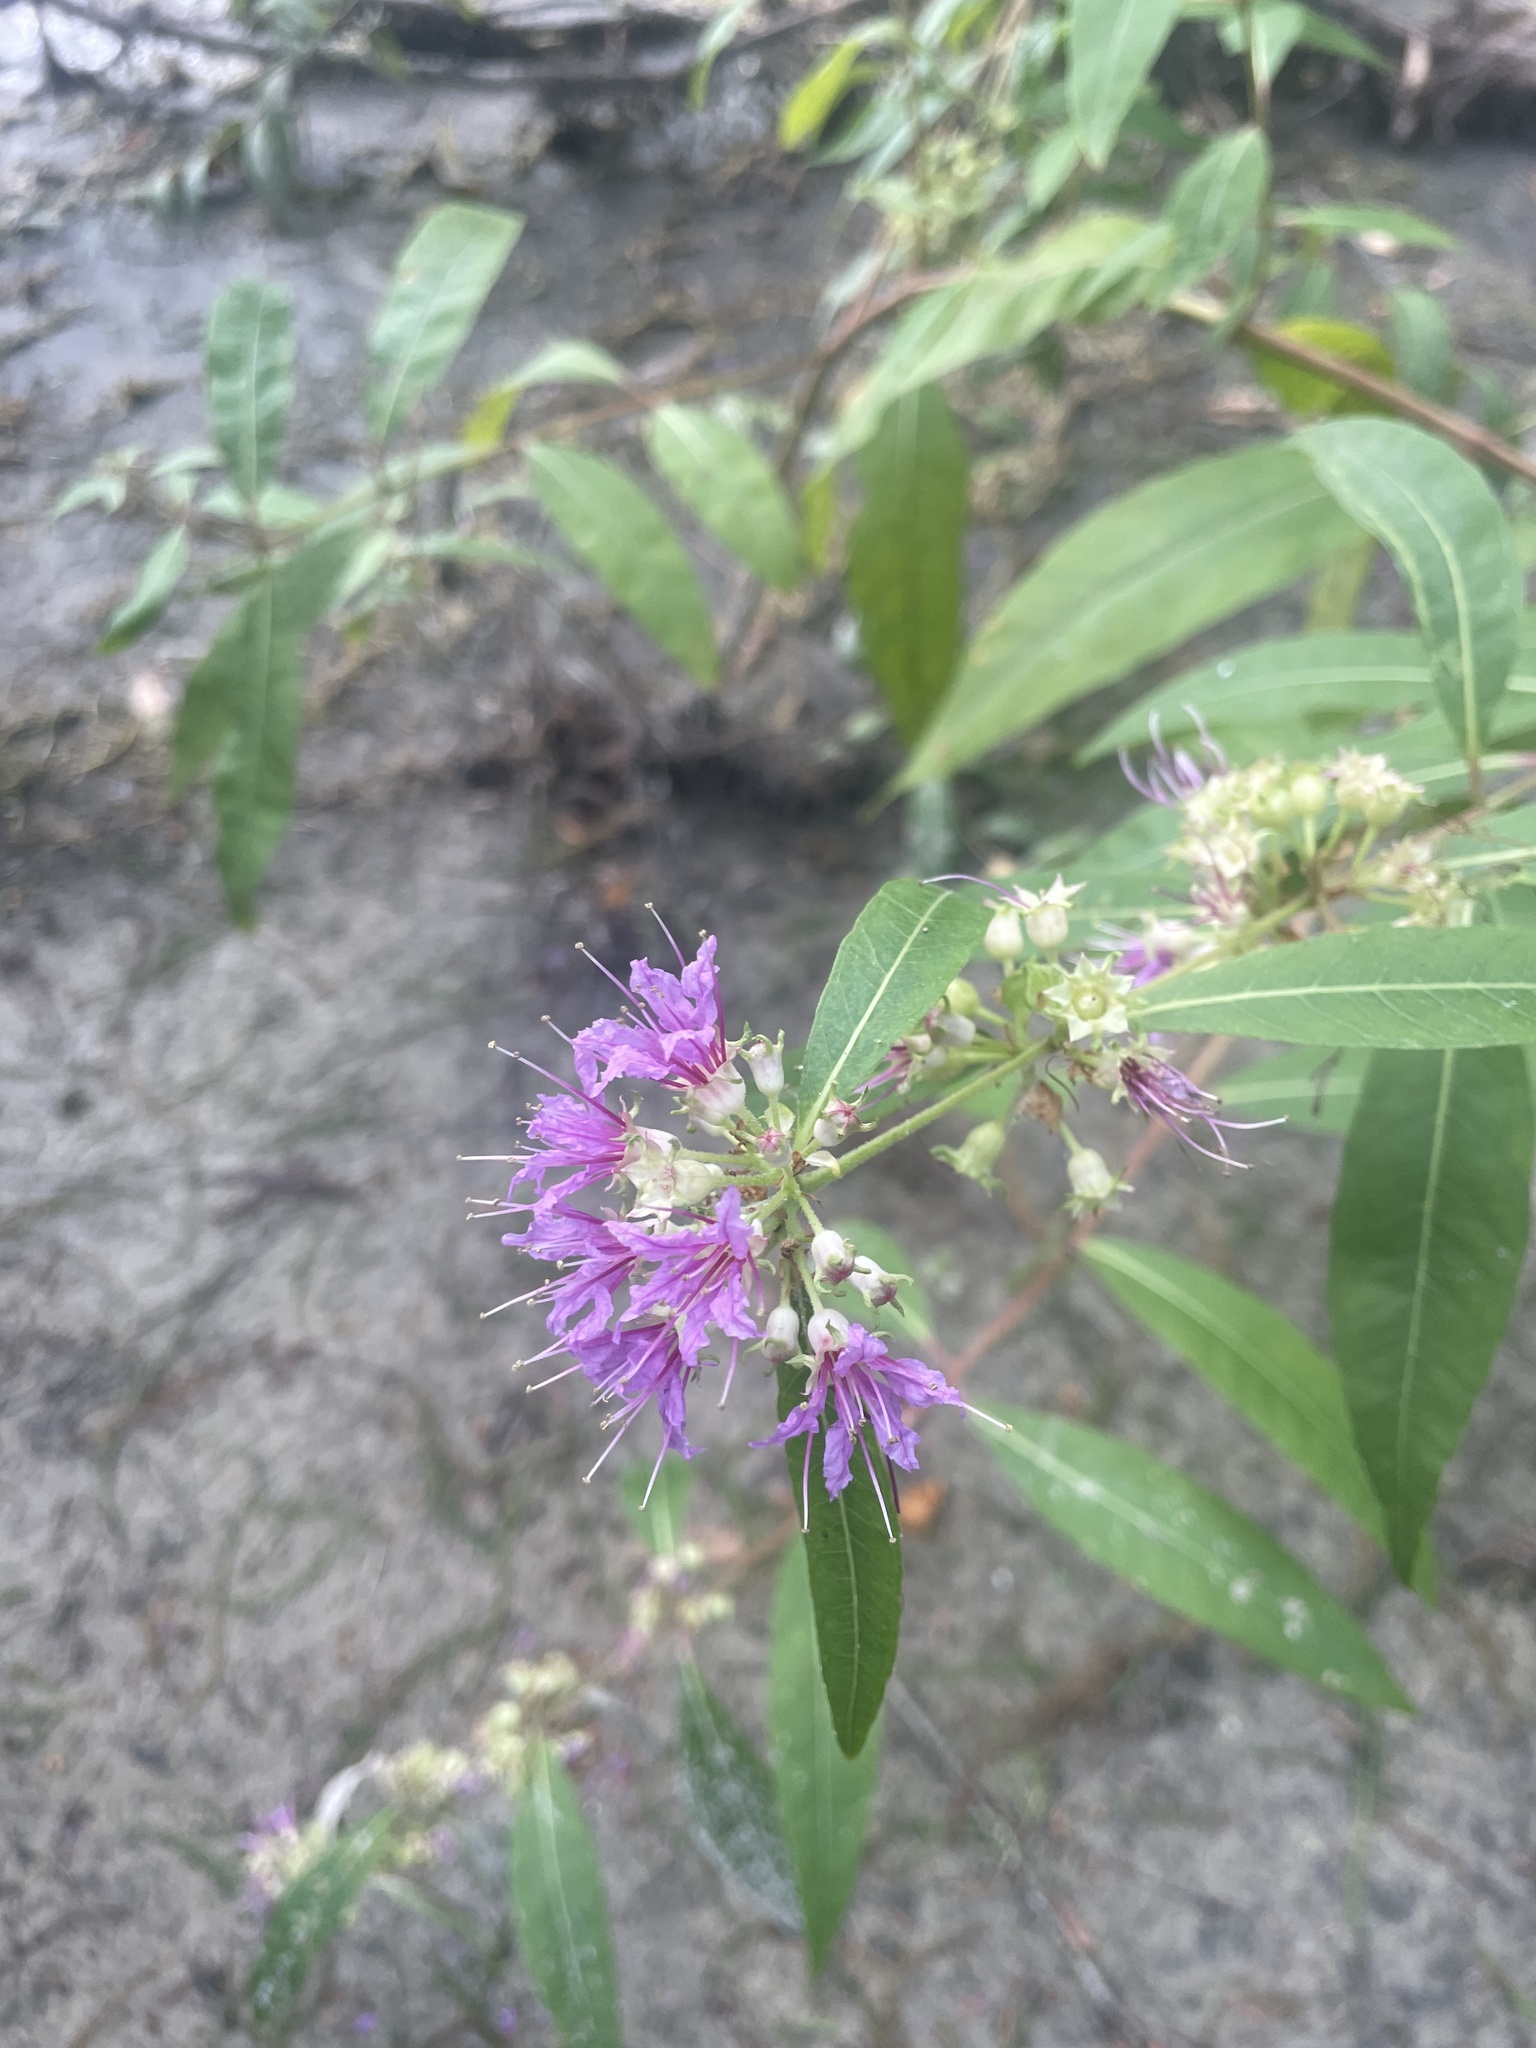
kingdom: Plantae
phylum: Tracheophyta
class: Magnoliopsida
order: Myrtales
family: Lythraceae
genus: Decodon
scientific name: Decodon verticillatus
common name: Hairy swamp loosestrife
